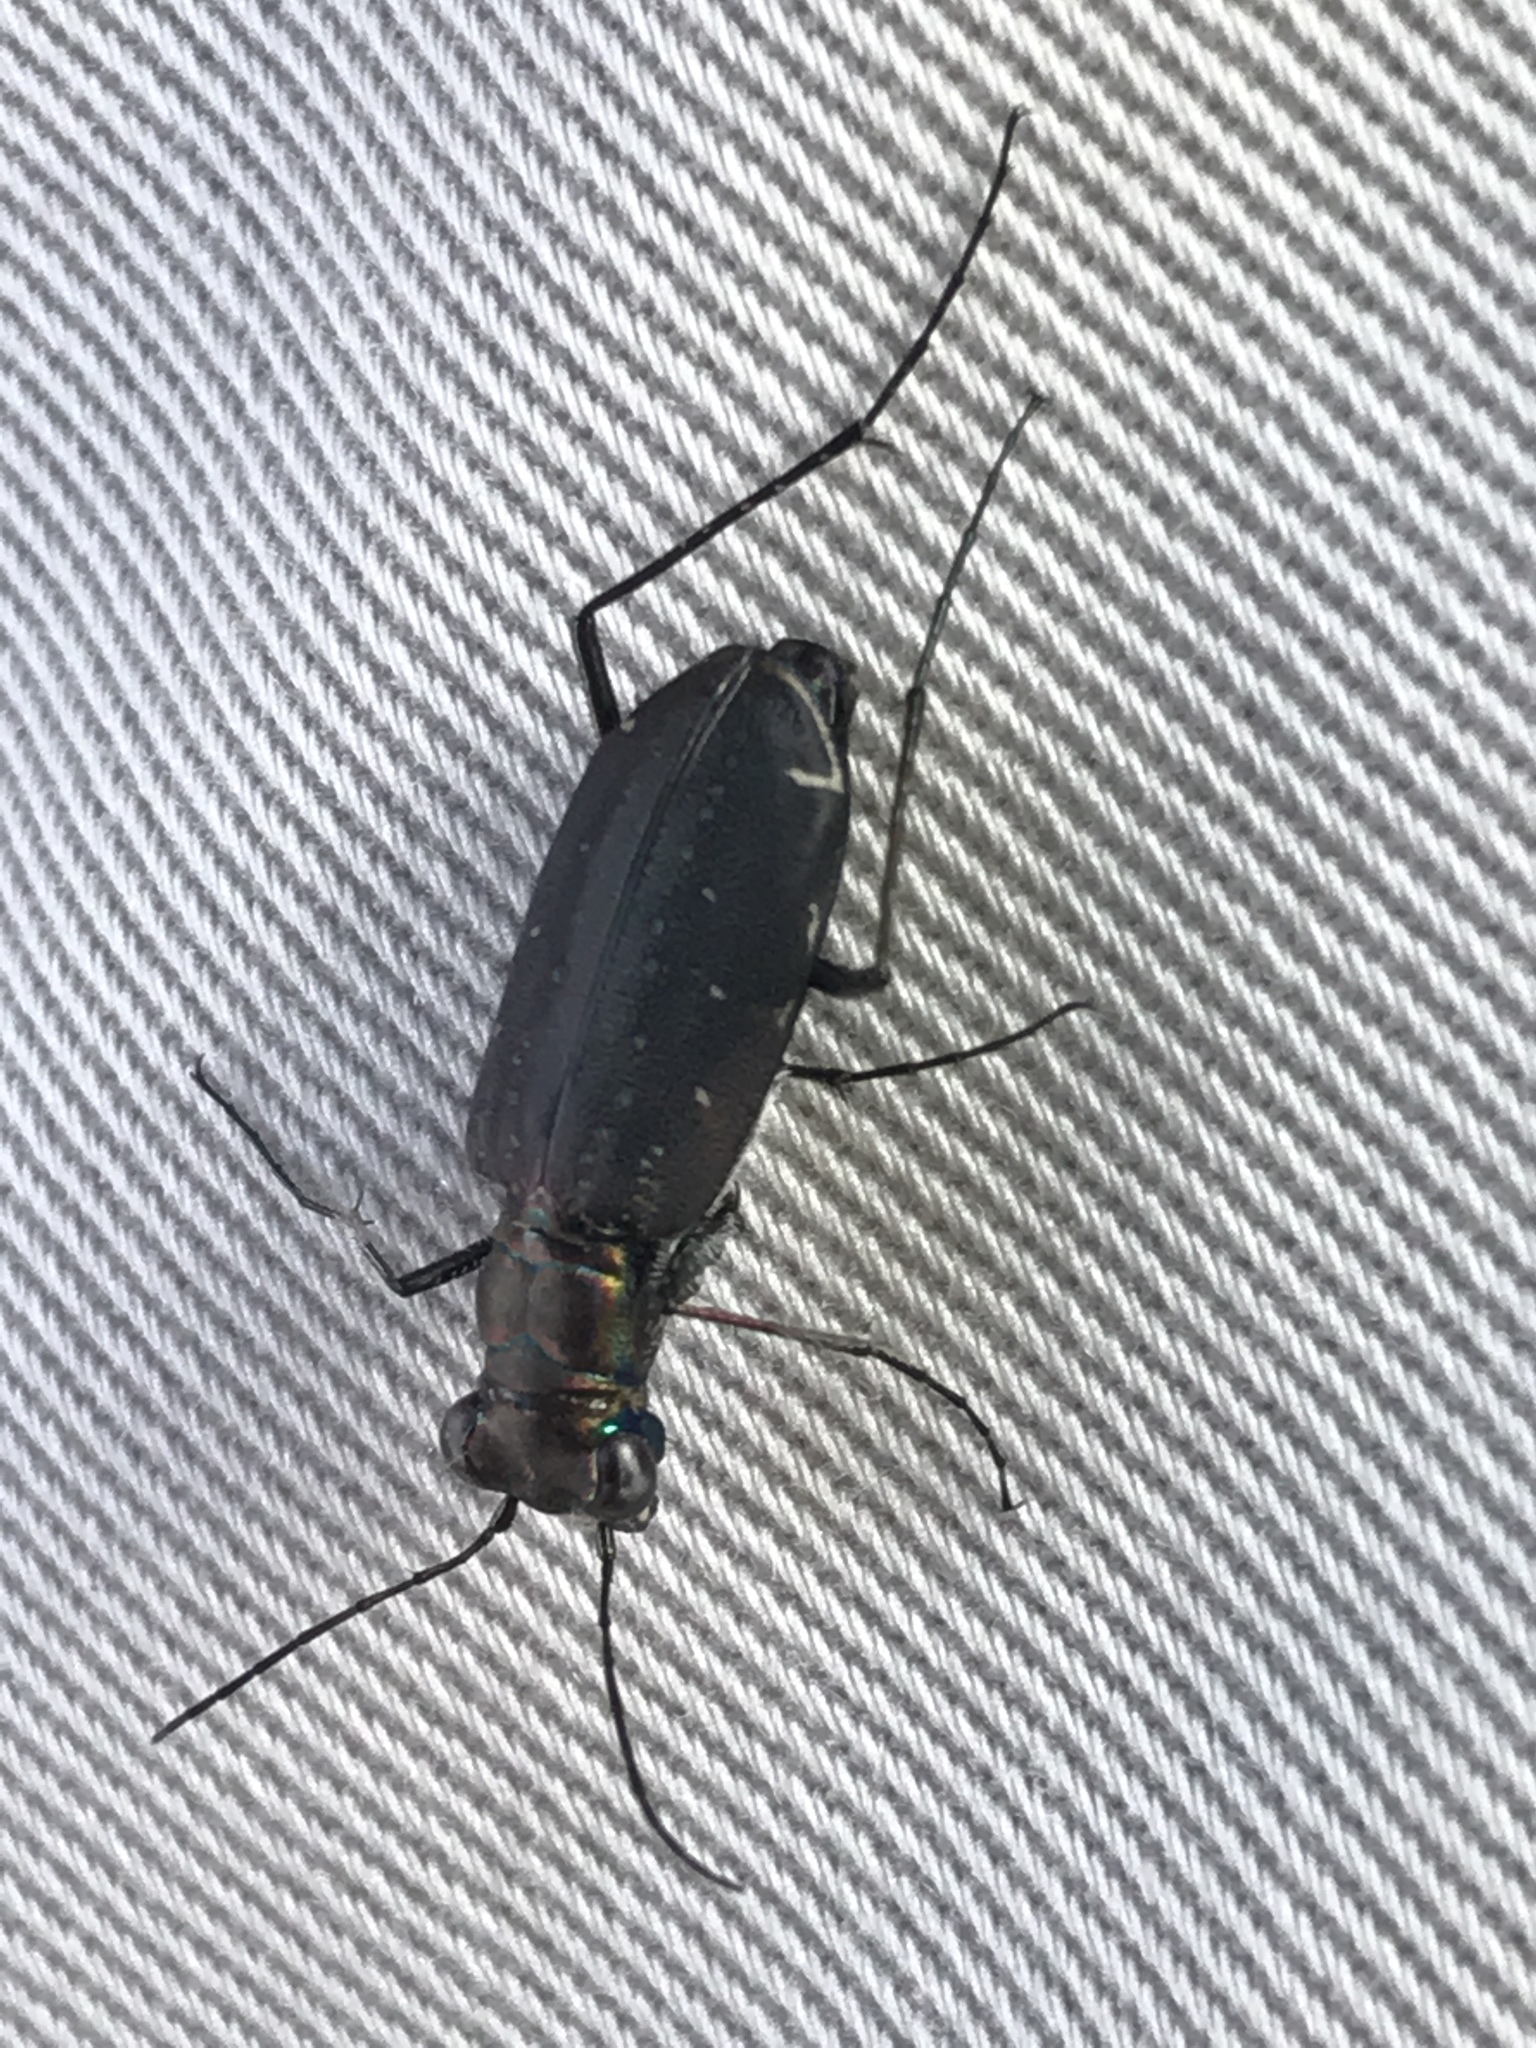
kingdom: Animalia
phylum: Arthropoda
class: Insecta
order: Coleoptera
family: Carabidae
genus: Cicindela
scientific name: Cicindela punctulata
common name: Punctured tiger beetle
